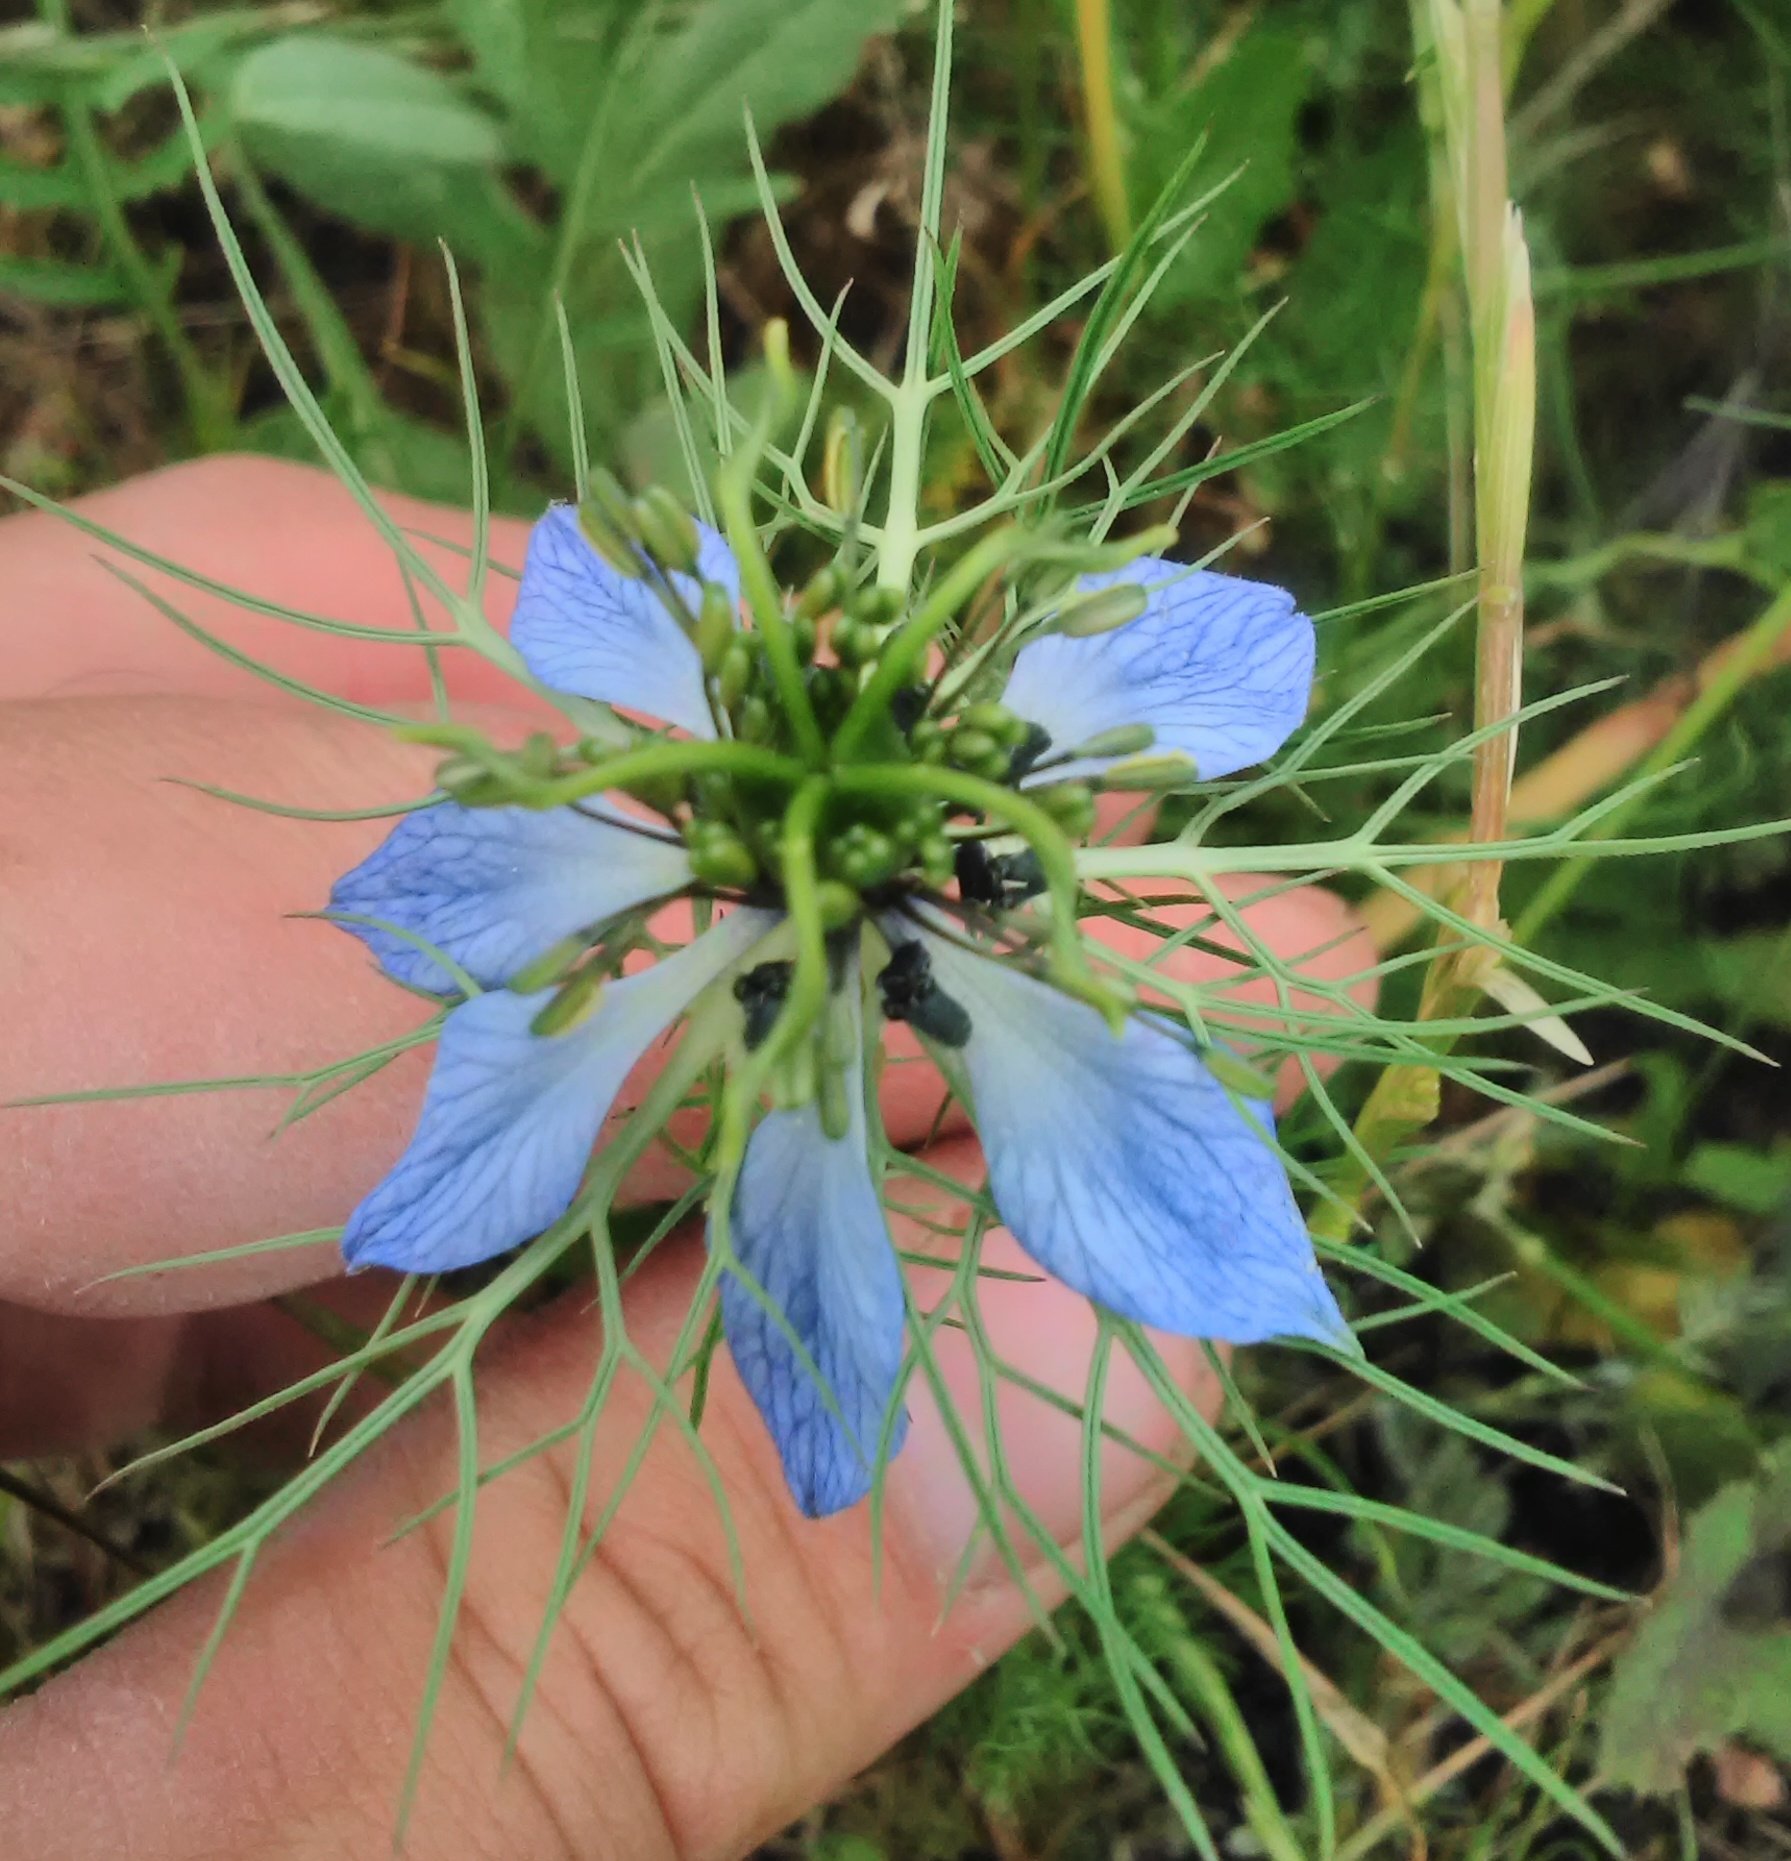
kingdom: Plantae
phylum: Tracheophyta
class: Magnoliopsida
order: Ranunculales
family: Ranunculaceae
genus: Nigella
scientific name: Nigella damascena
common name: Love-in-a-mist
